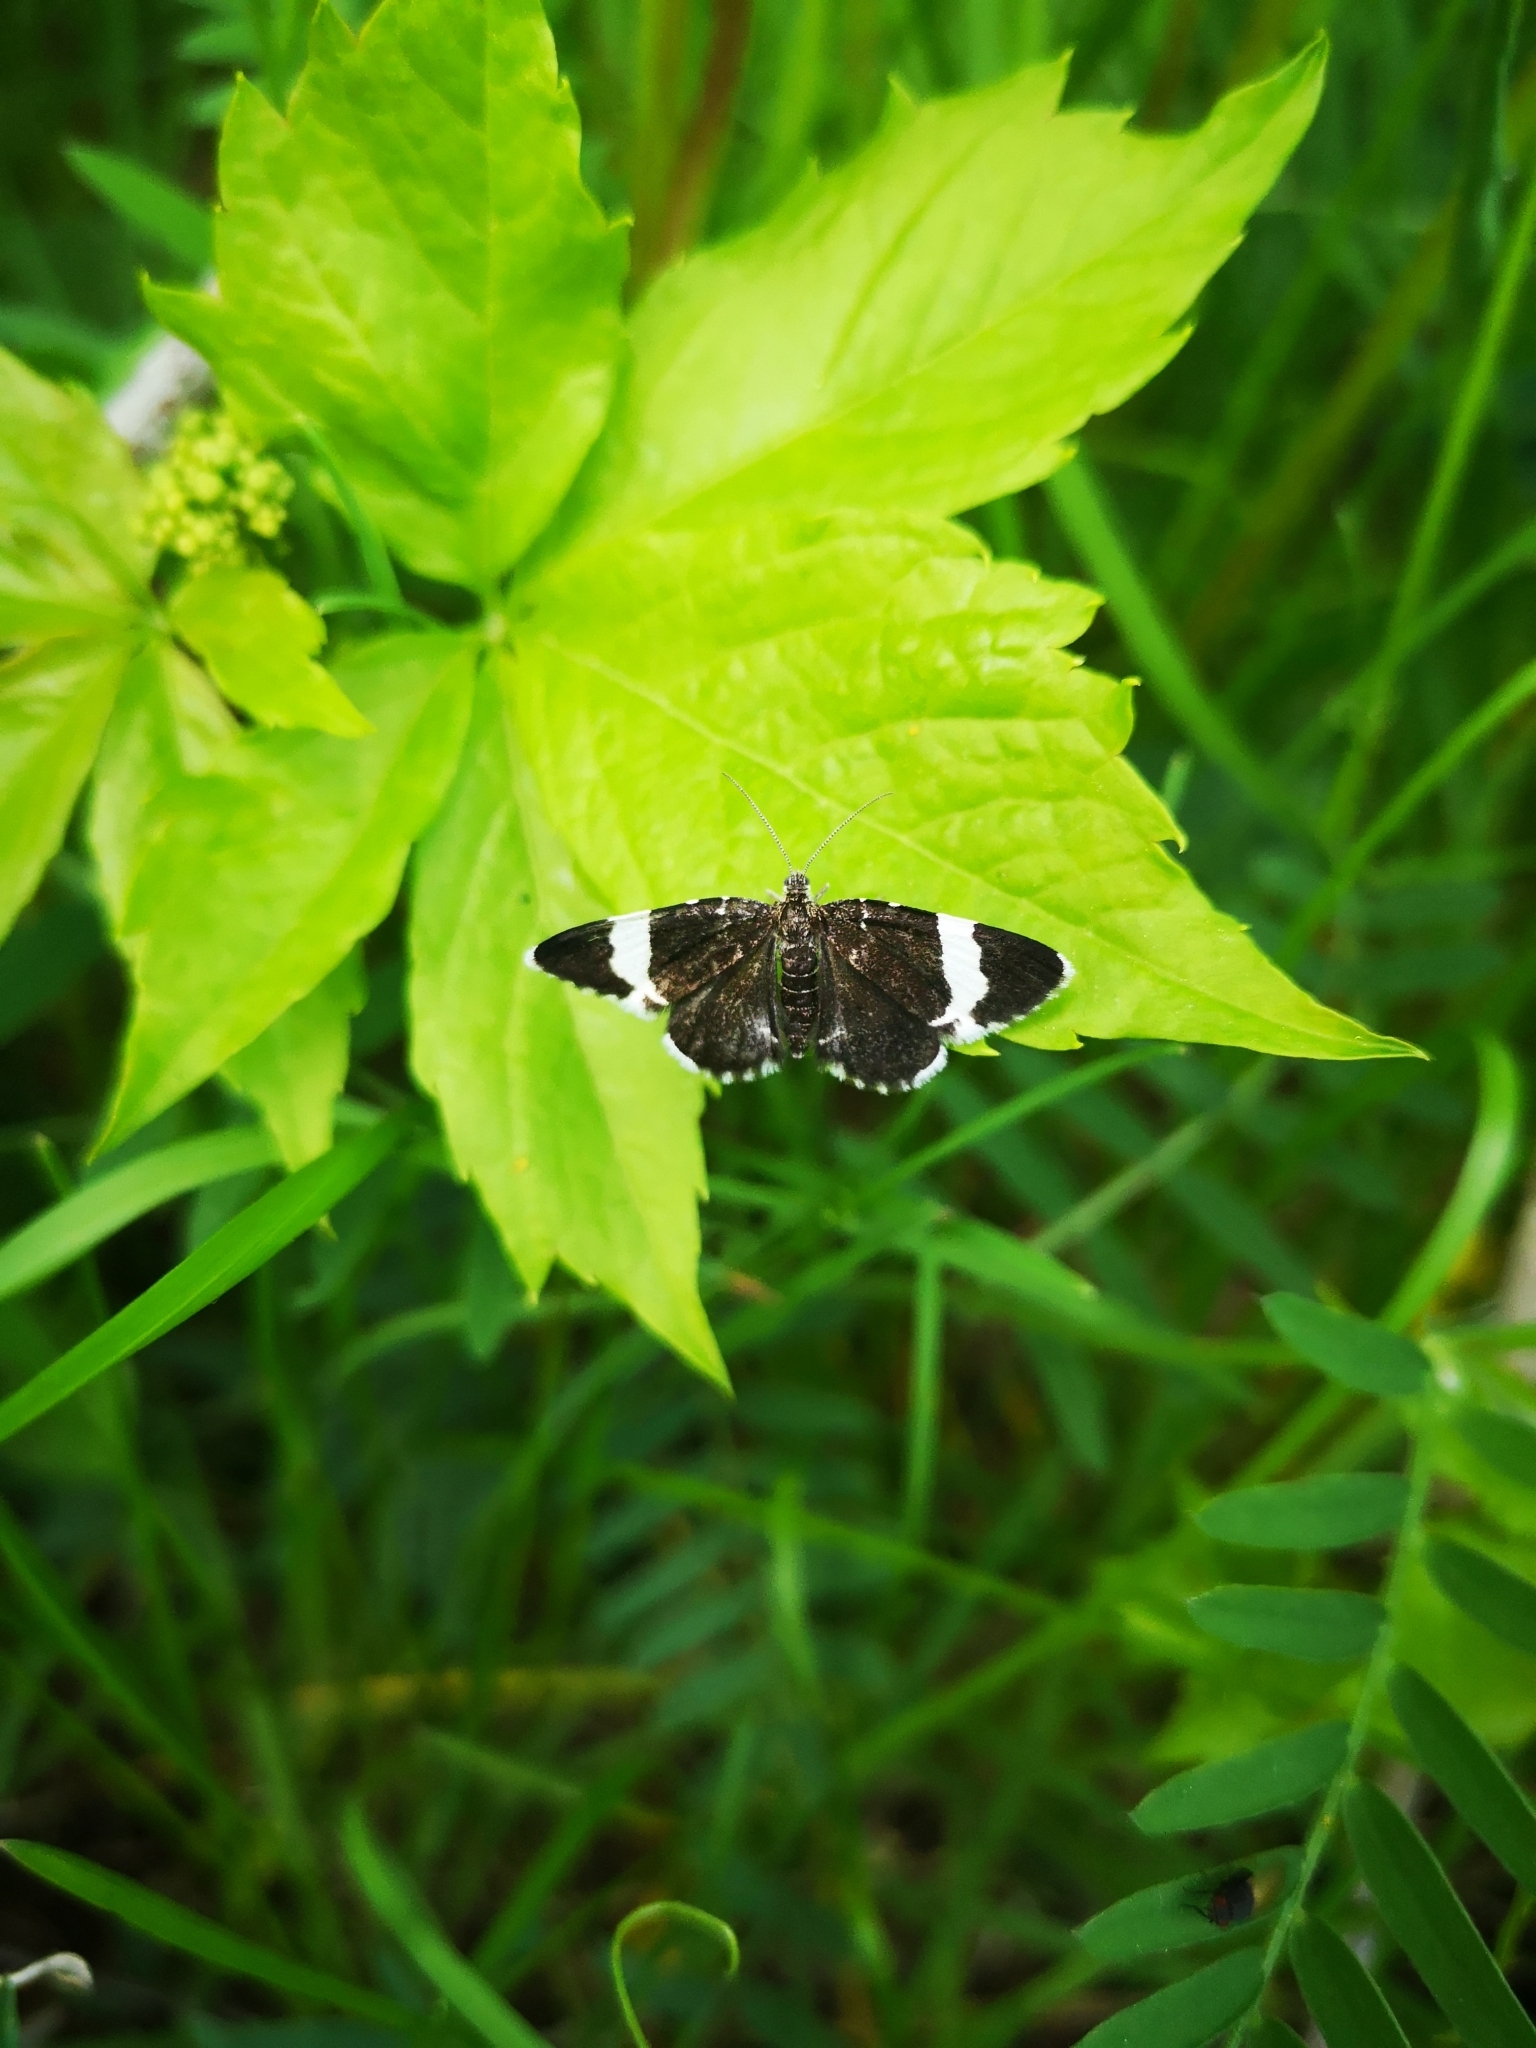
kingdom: Animalia
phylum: Arthropoda
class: Insecta
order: Lepidoptera
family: Geometridae
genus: Trichodezia
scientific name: Trichodezia albovittata
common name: White striped black
